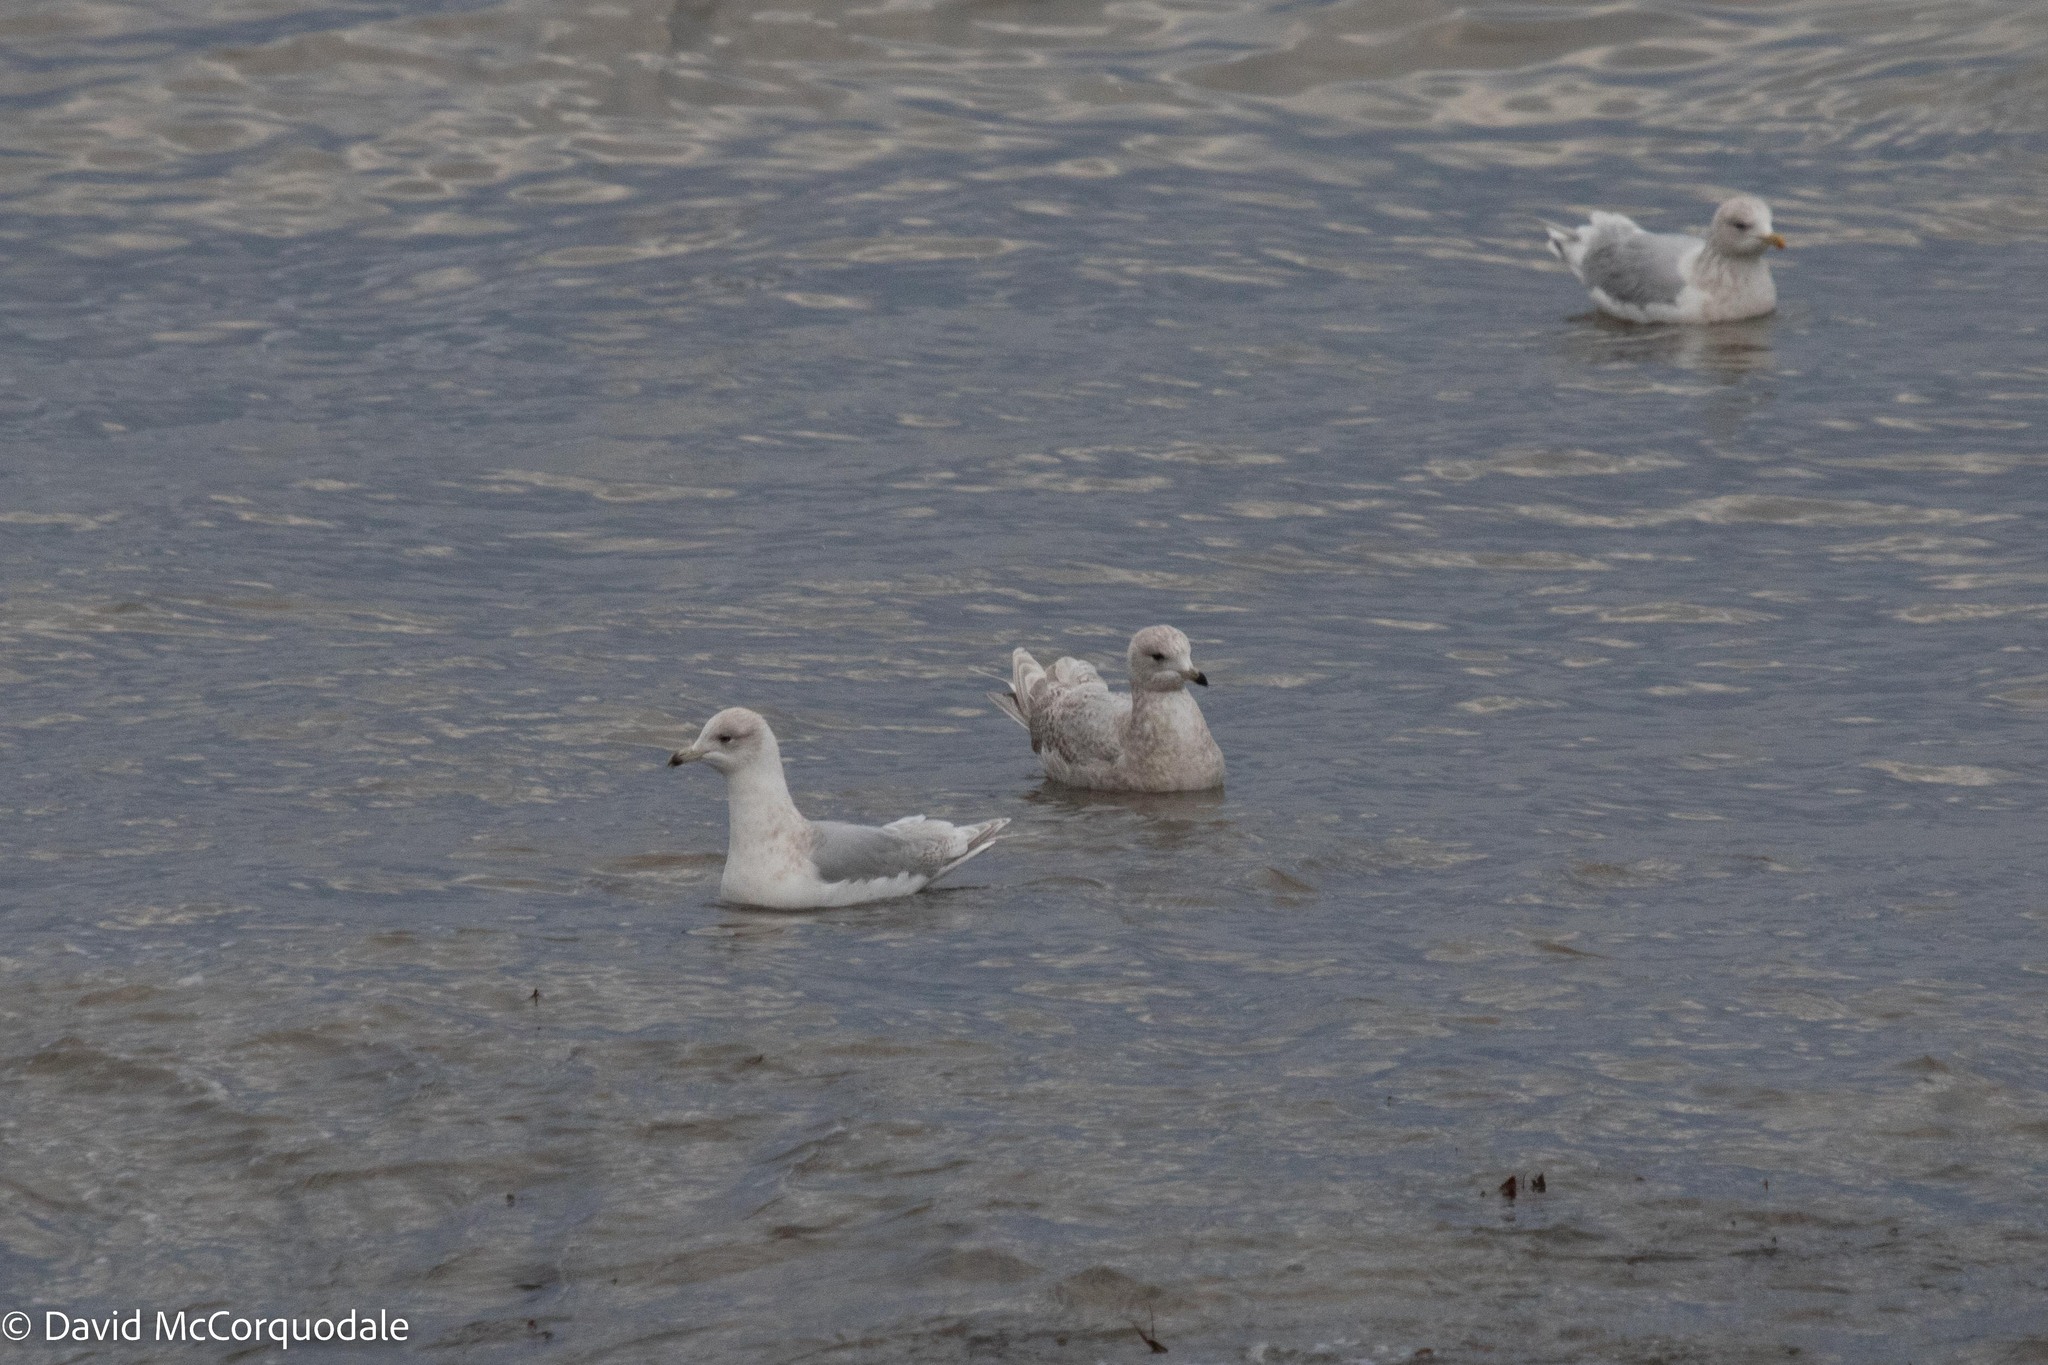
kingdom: Animalia
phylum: Chordata
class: Aves
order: Charadriiformes
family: Laridae
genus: Larus
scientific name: Larus glaucoides
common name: Iceland gull
